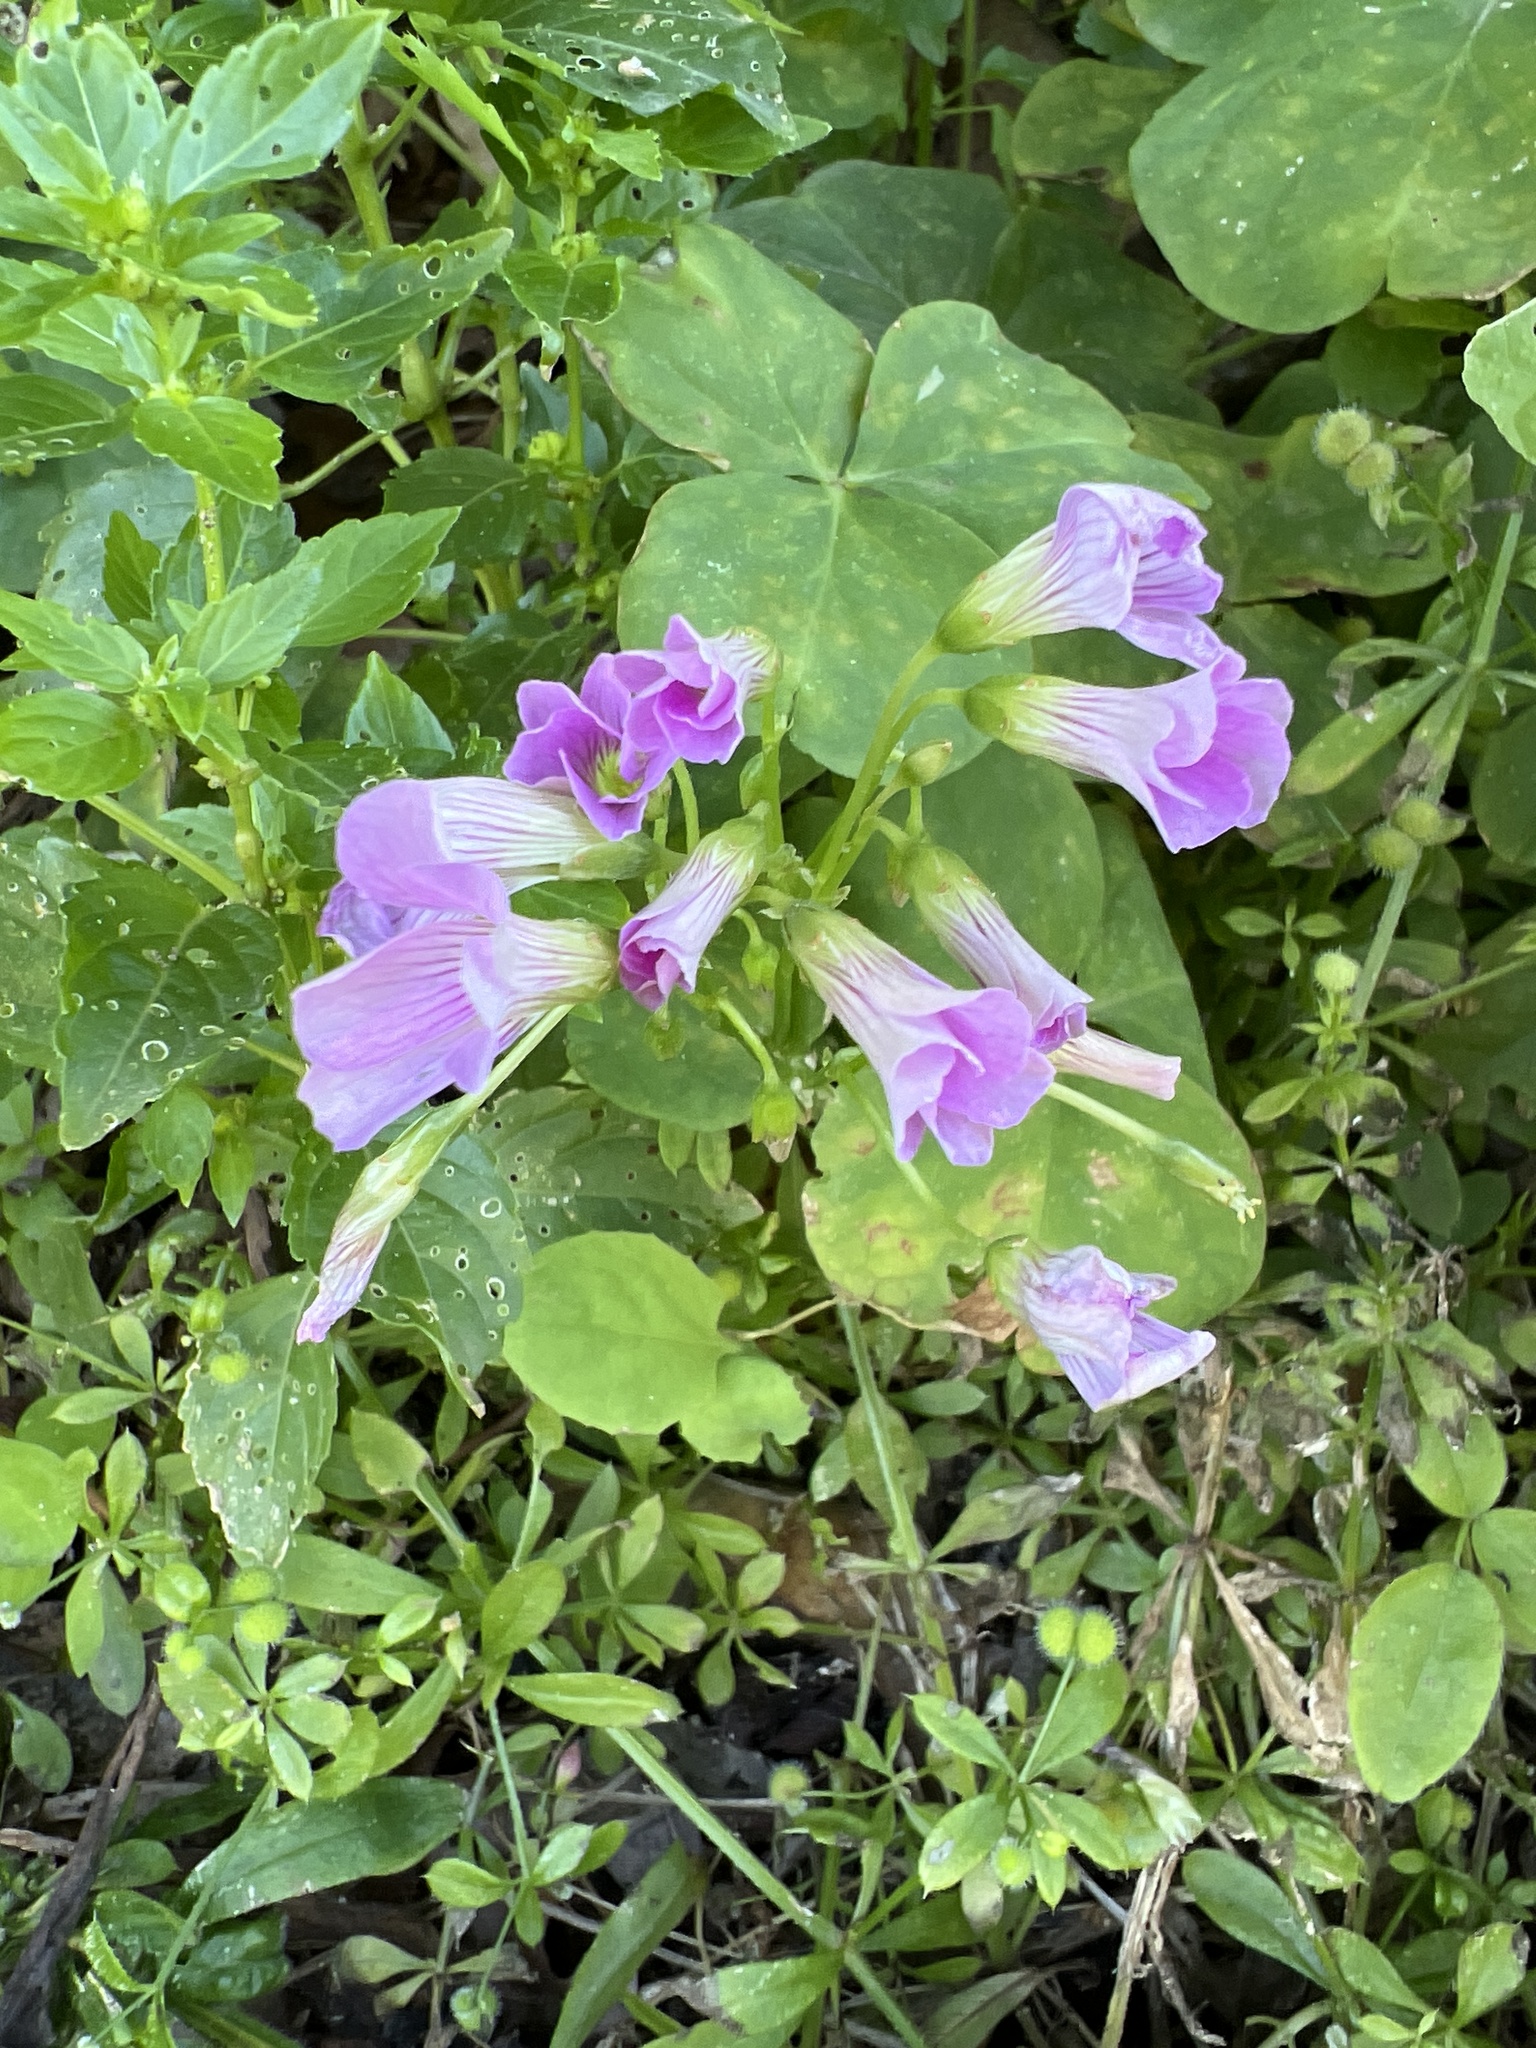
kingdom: Plantae
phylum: Tracheophyta
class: Magnoliopsida
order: Oxalidales
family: Oxalidaceae
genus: Oxalis
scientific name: Oxalis debilis
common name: Large-flowered pink-sorrel
